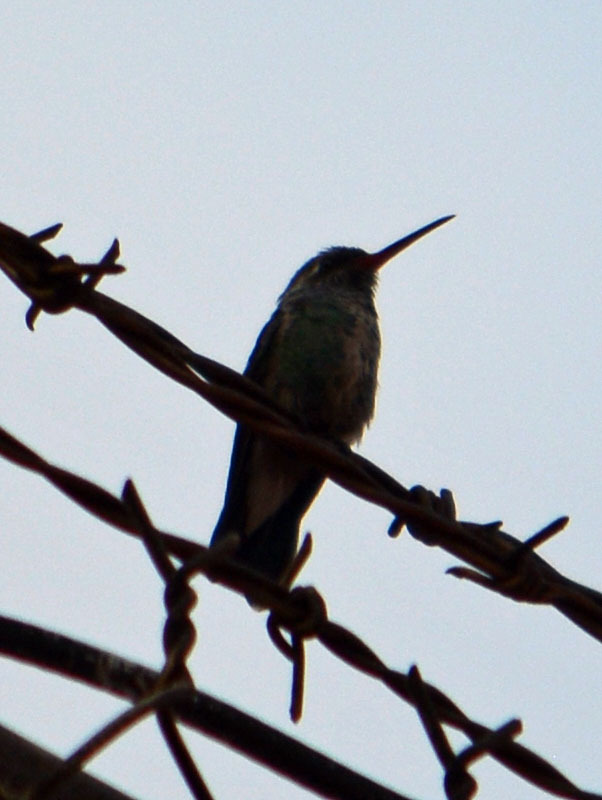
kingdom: Animalia
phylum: Chordata
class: Aves
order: Apodiformes
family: Trochilidae
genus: Cynanthus
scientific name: Cynanthus latirostris
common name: Broad-billed hummingbird
